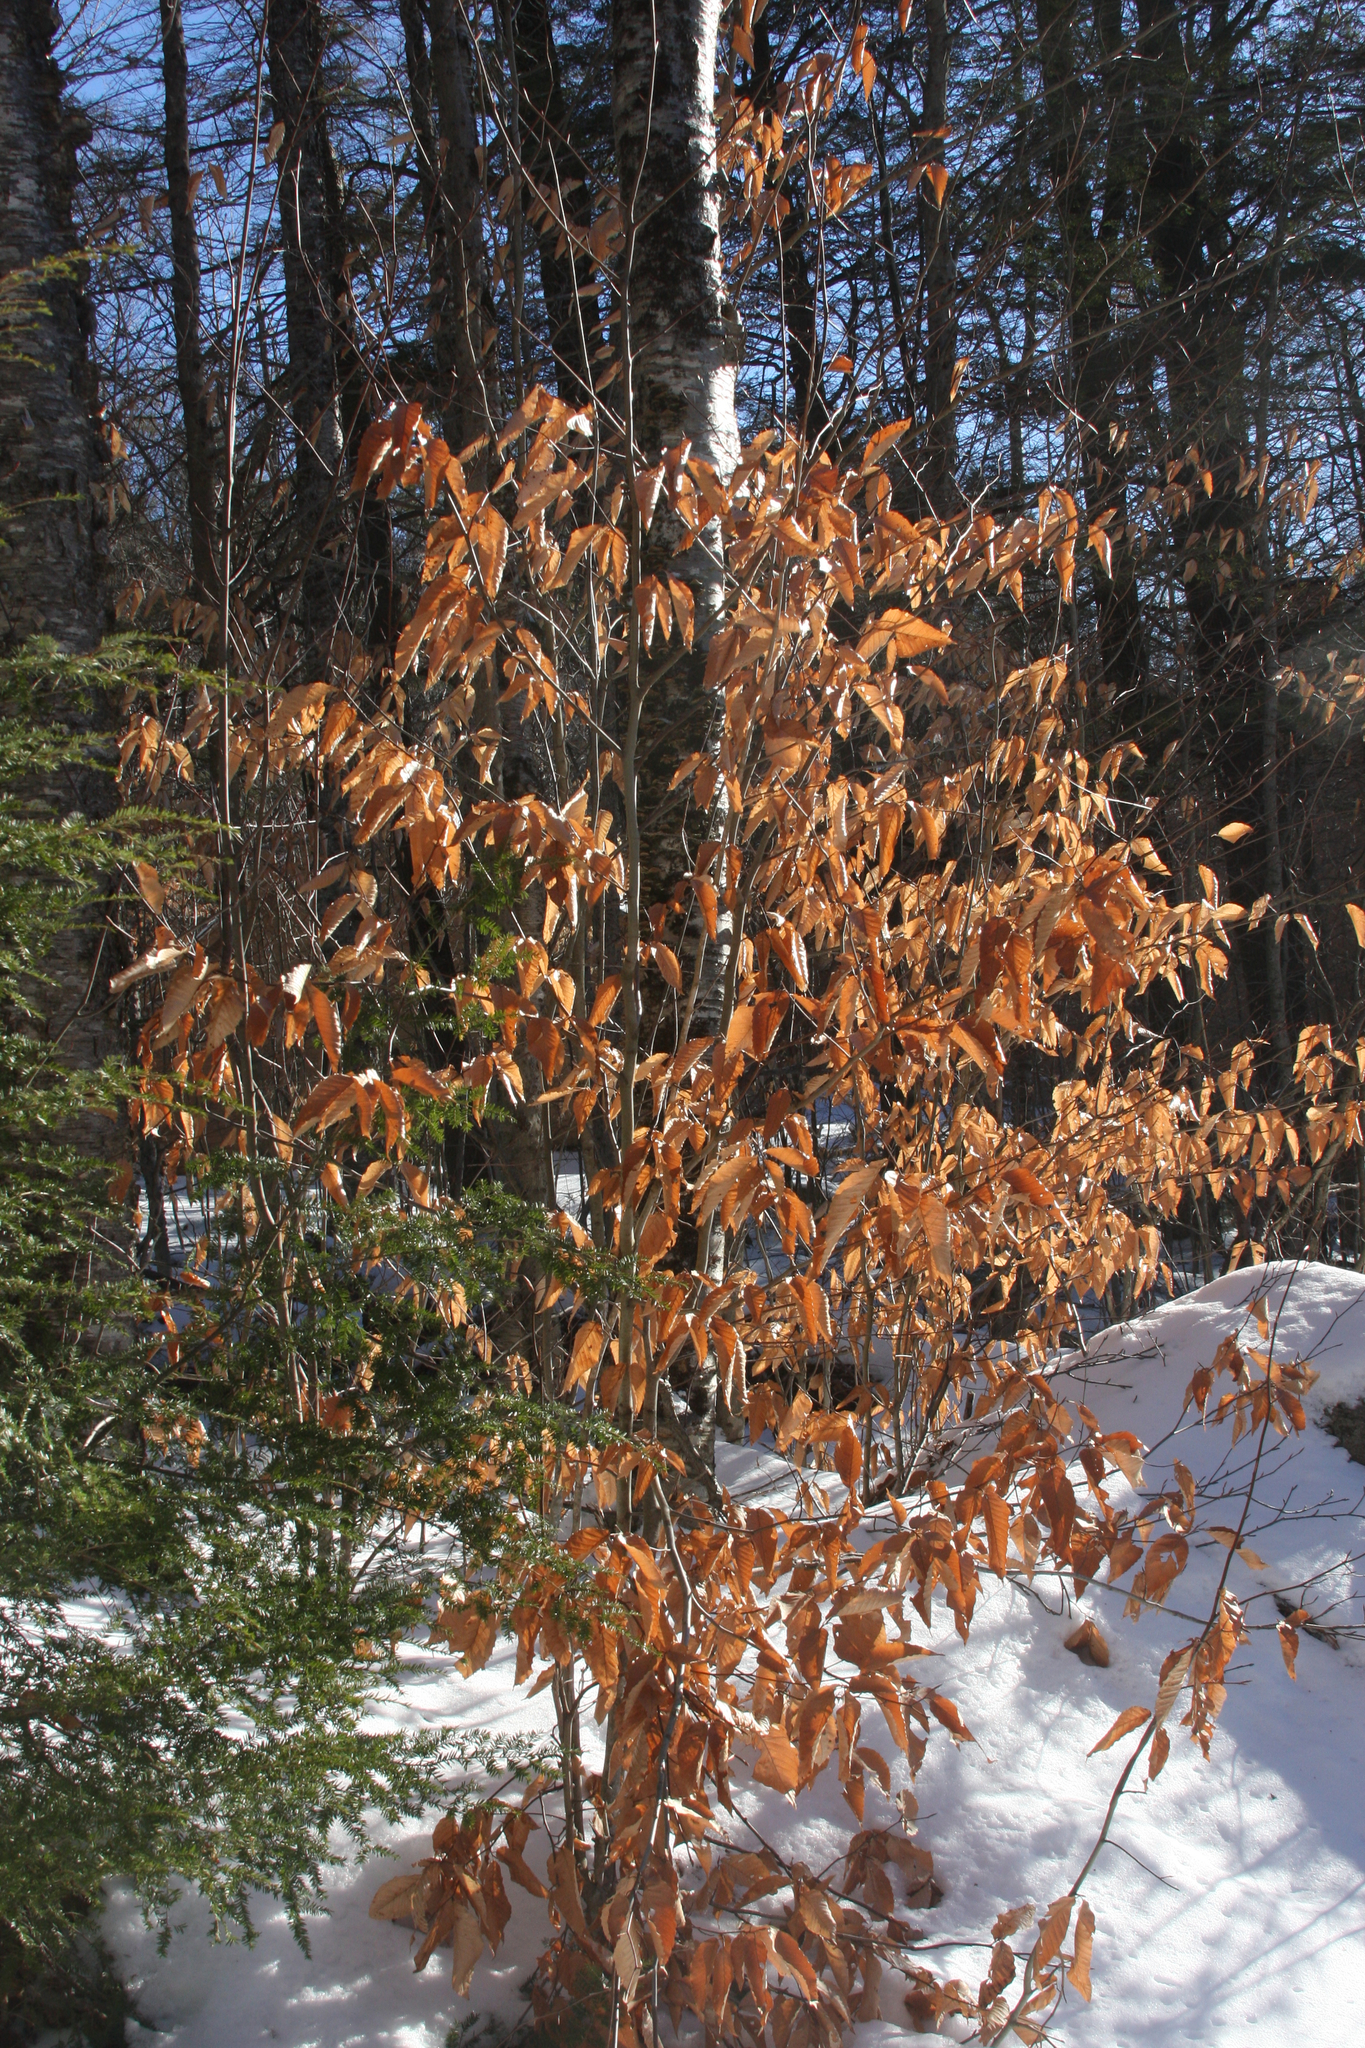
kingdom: Plantae
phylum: Tracheophyta
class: Magnoliopsida
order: Fagales
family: Fagaceae
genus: Fagus
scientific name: Fagus grandifolia
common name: American beech
